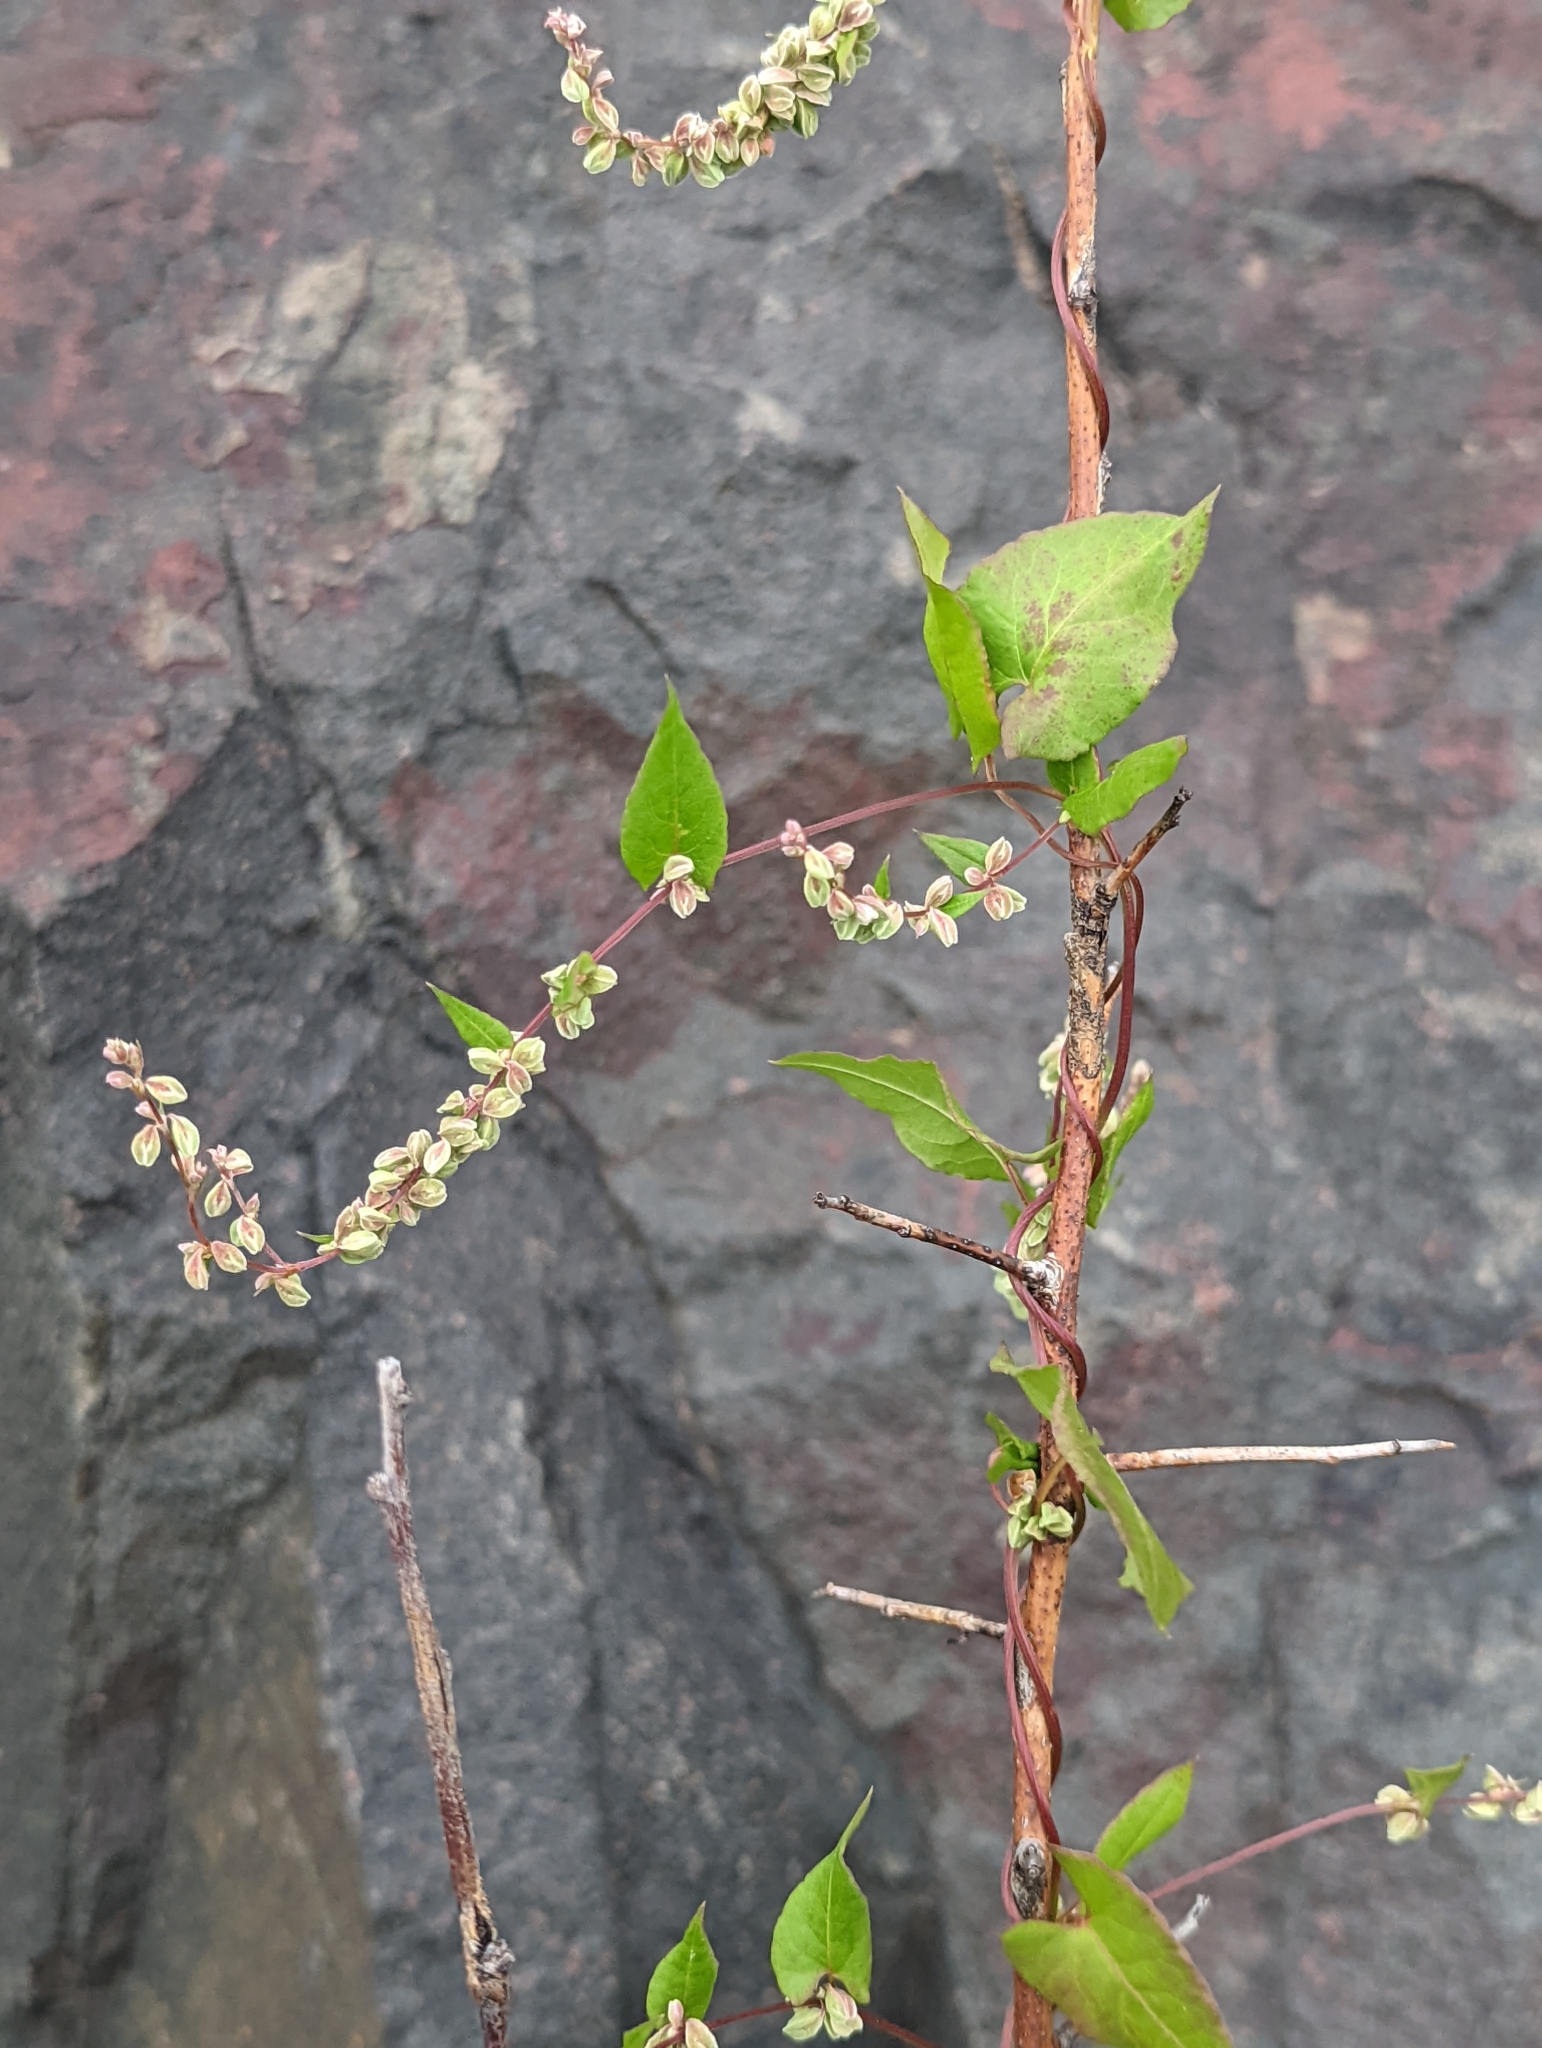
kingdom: Plantae
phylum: Tracheophyta
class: Magnoliopsida
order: Caryophyllales
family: Polygonaceae
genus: Fallopia
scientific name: Fallopia scandens
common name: Climbing false buckwheat
